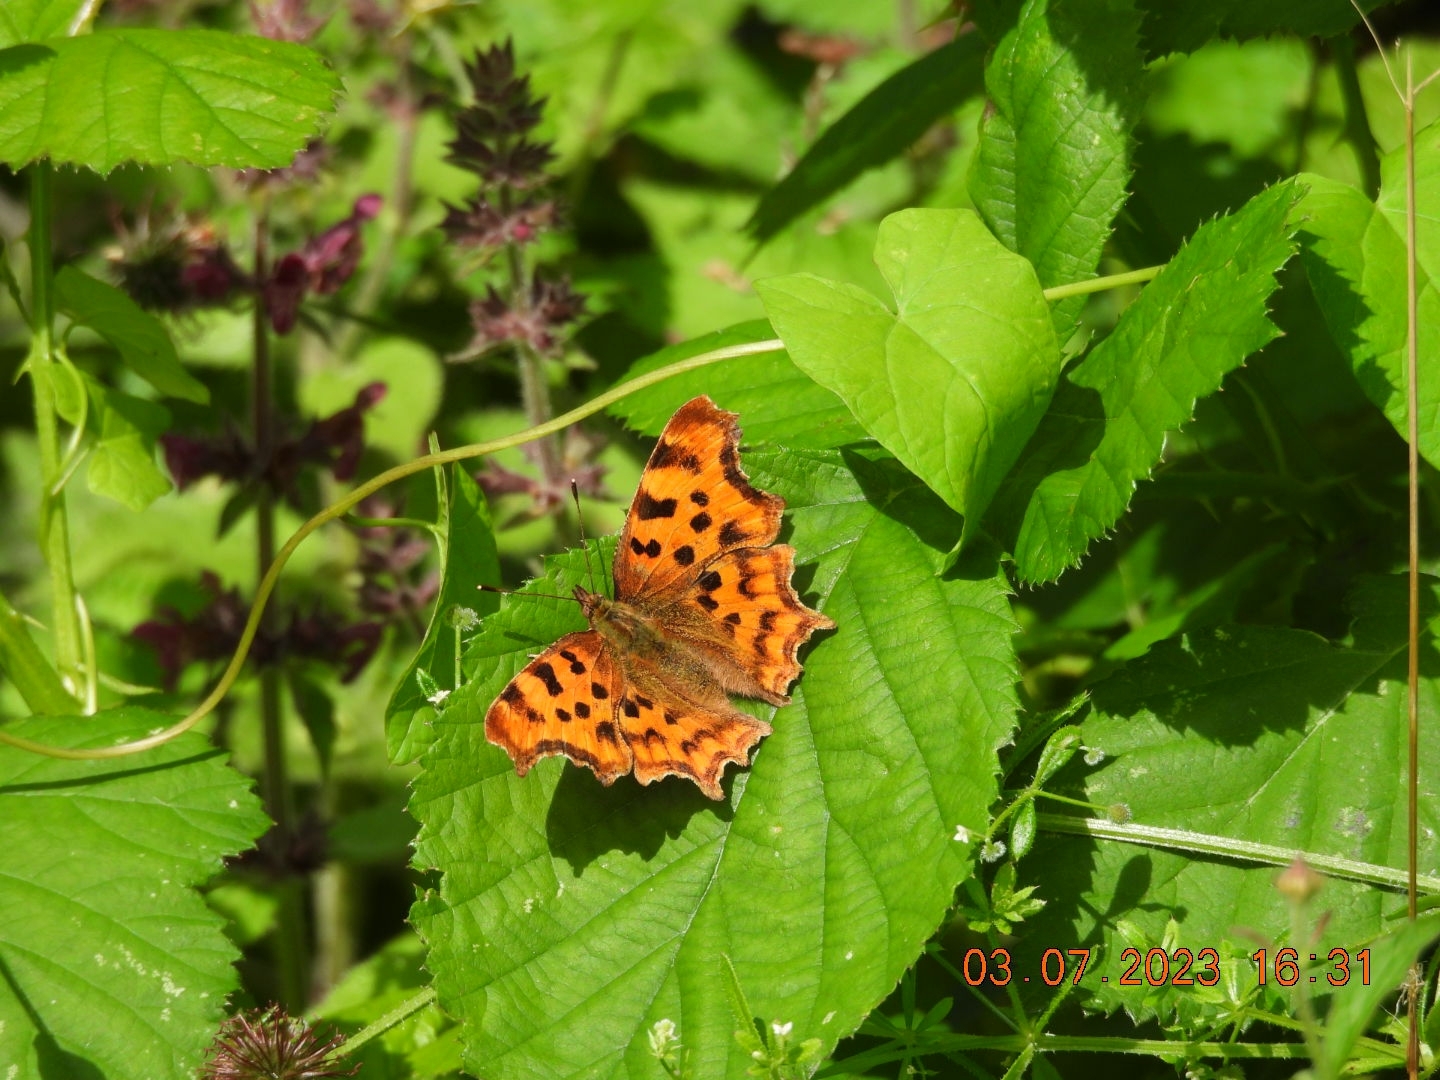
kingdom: Animalia
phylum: Arthropoda
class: Insecta
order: Lepidoptera
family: Nymphalidae
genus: Polygonia
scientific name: Polygonia c-album
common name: Comma
